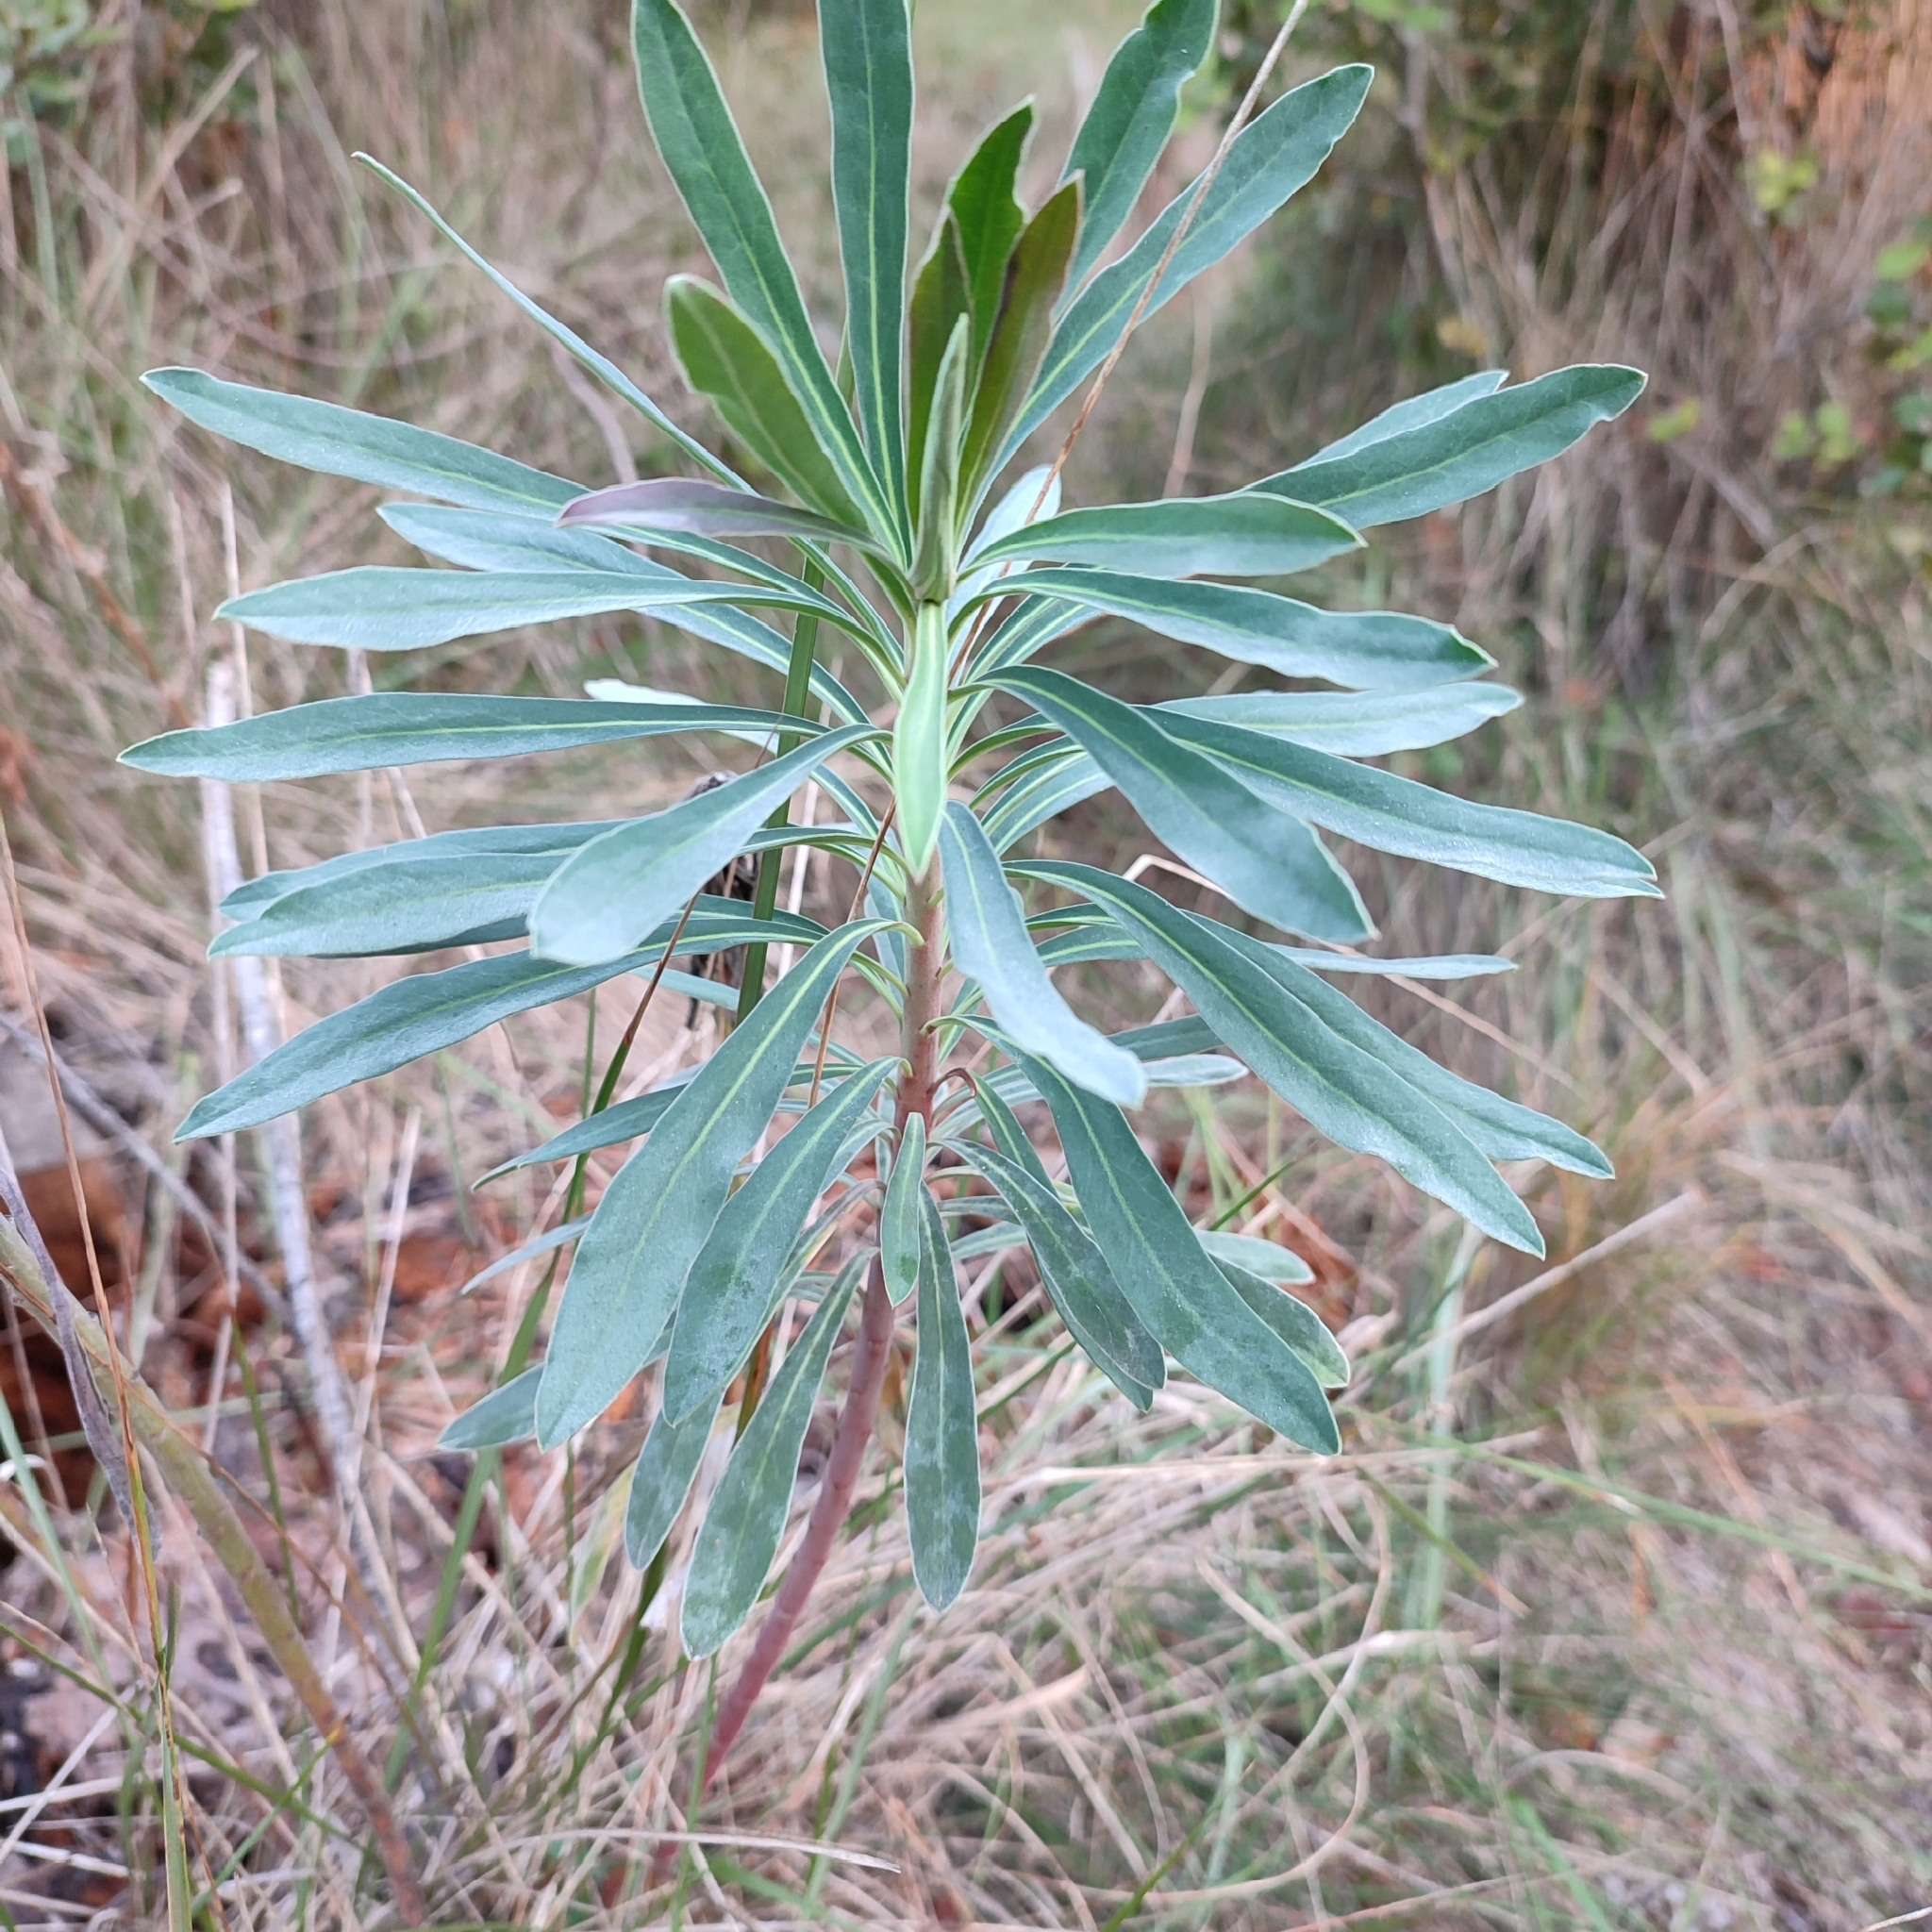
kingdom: Plantae
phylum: Tracheophyta
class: Magnoliopsida
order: Malpighiales
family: Euphorbiaceae
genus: Euphorbia
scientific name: Euphorbia characias
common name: Mediterranean spurge
